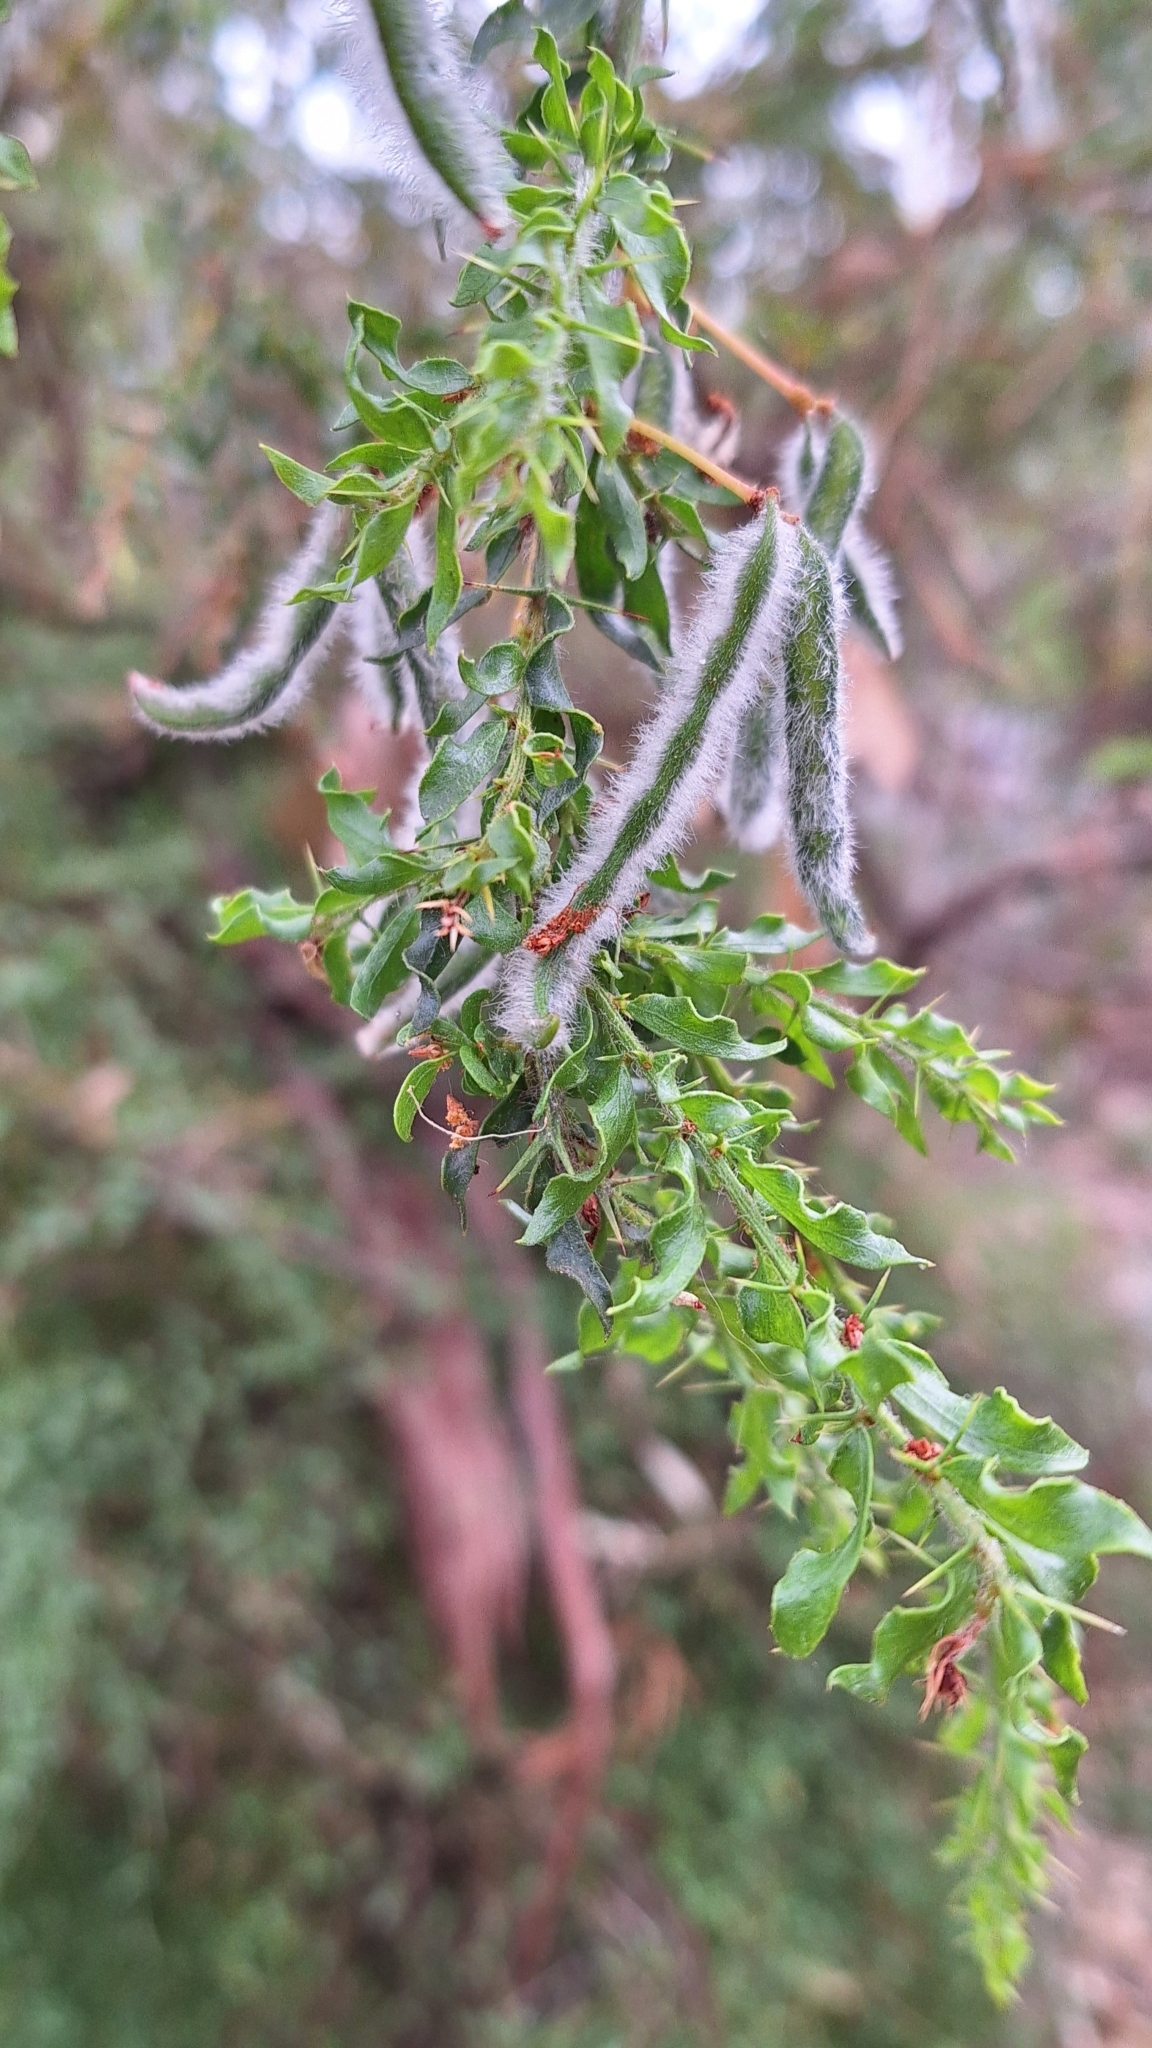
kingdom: Plantae
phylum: Tracheophyta
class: Magnoliopsida
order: Fabales
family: Fabaceae
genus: Acacia
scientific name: Acacia paradoxa
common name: Paradox acacia
